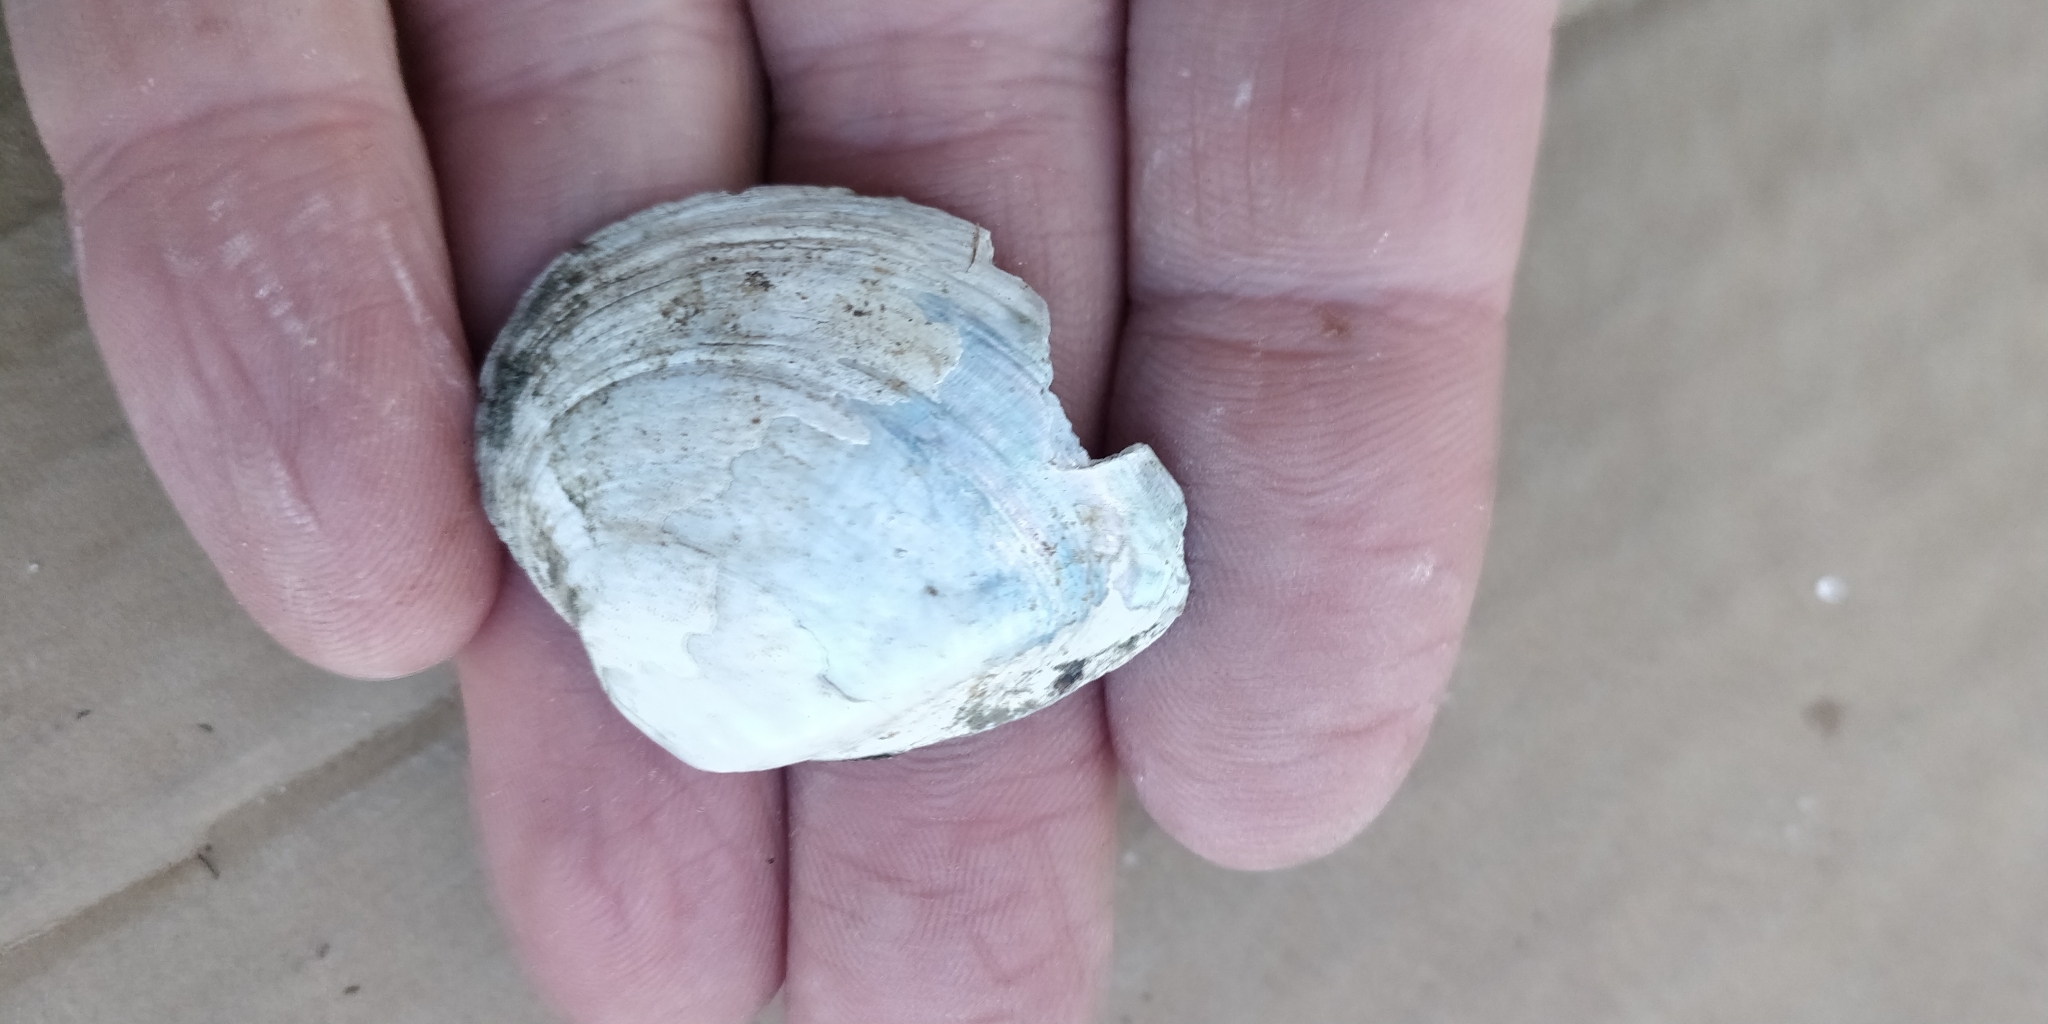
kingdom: Animalia
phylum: Mollusca
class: Bivalvia
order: Unionida
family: Unionidae
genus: Truncilla
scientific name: Truncilla truncata
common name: Deertoe
